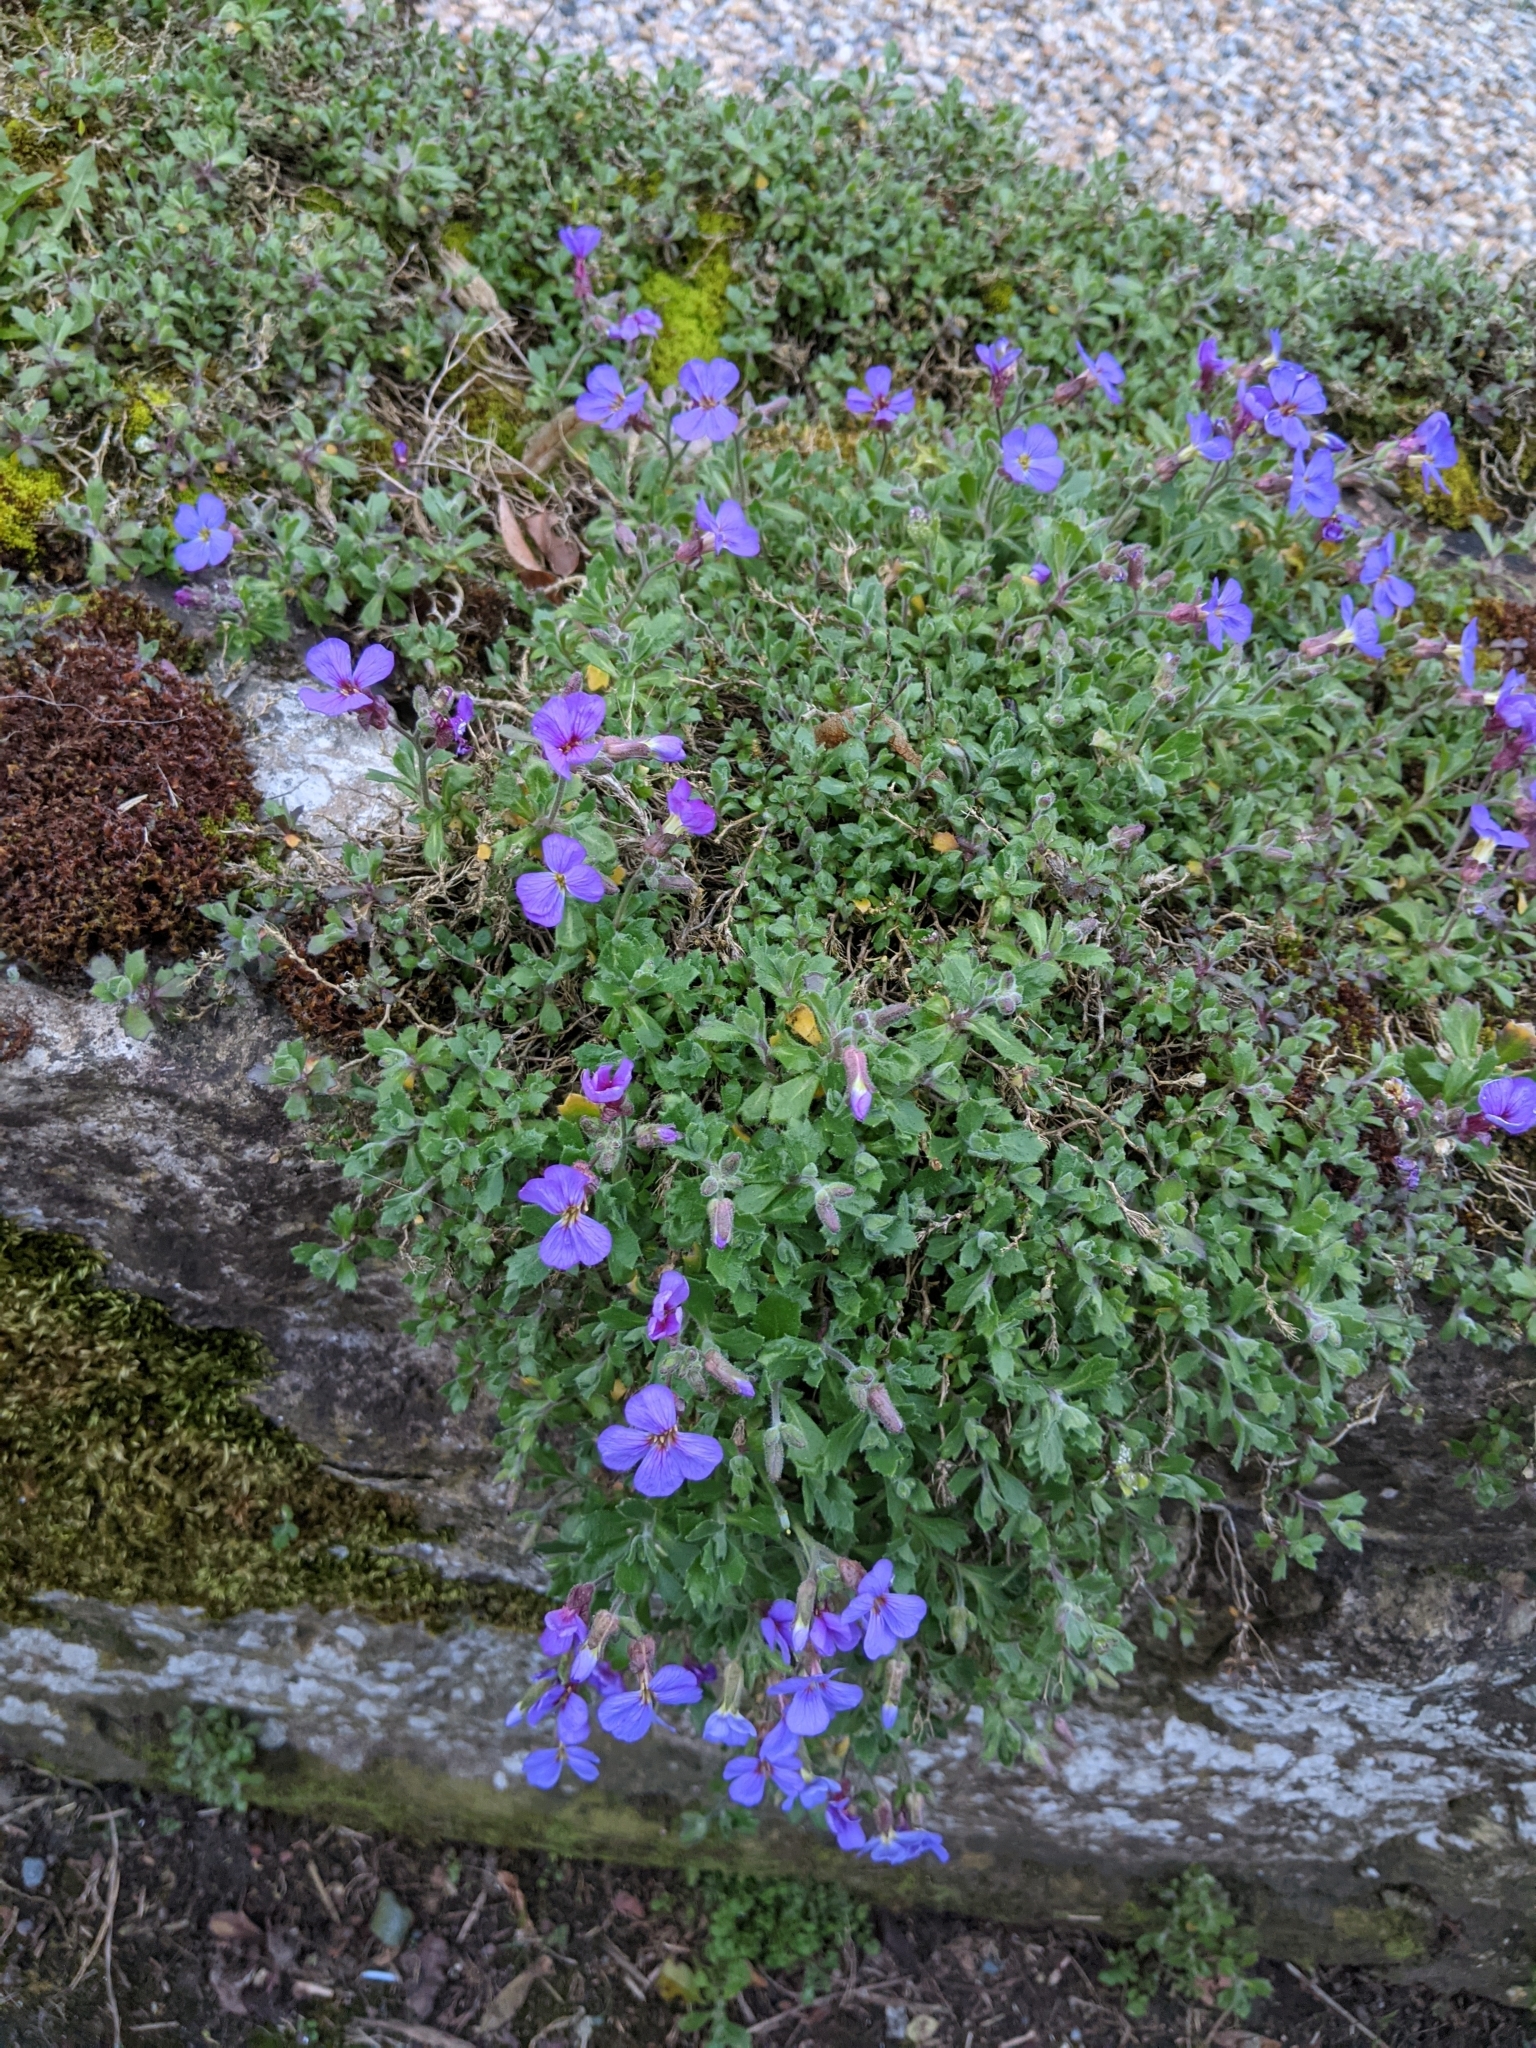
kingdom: Plantae
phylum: Tracheophyta
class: Magnoliopsida
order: Brassicales
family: Brassicaceae
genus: Aubrieta
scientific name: Aubrieta deltoidea
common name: Aubretia
